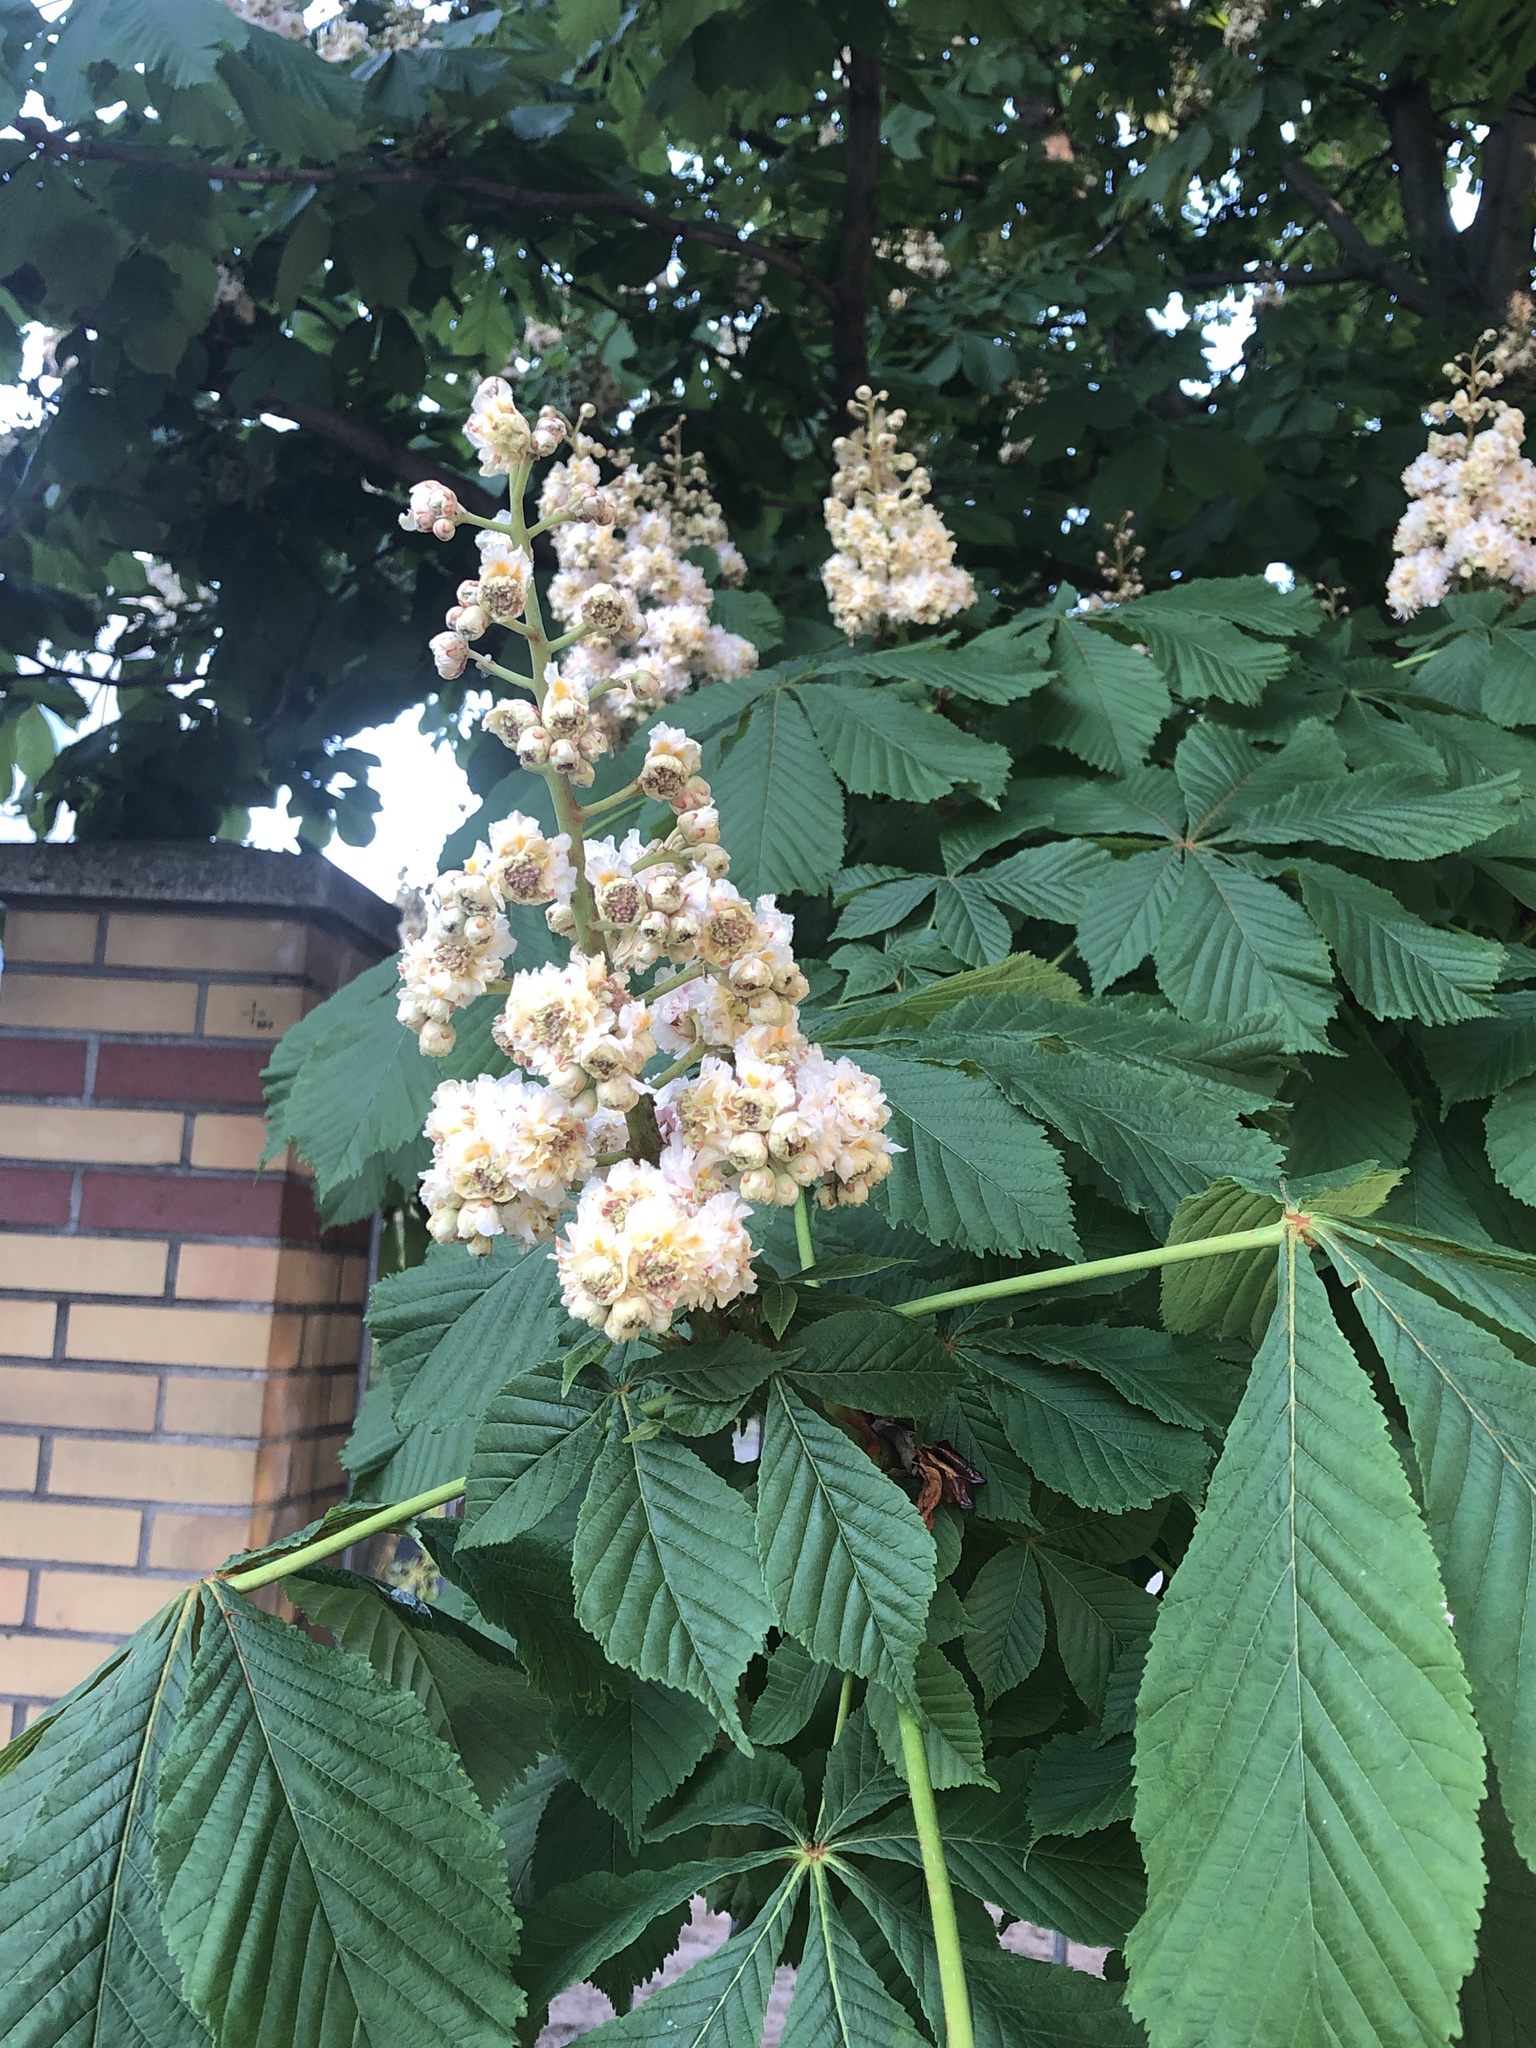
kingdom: Plantae
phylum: Tracheophyta
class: Magnoliopsida
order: Sapindales
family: Sapindaceae
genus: Aesculus
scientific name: Aesculus hippocastanum
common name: Horse-chestnut
